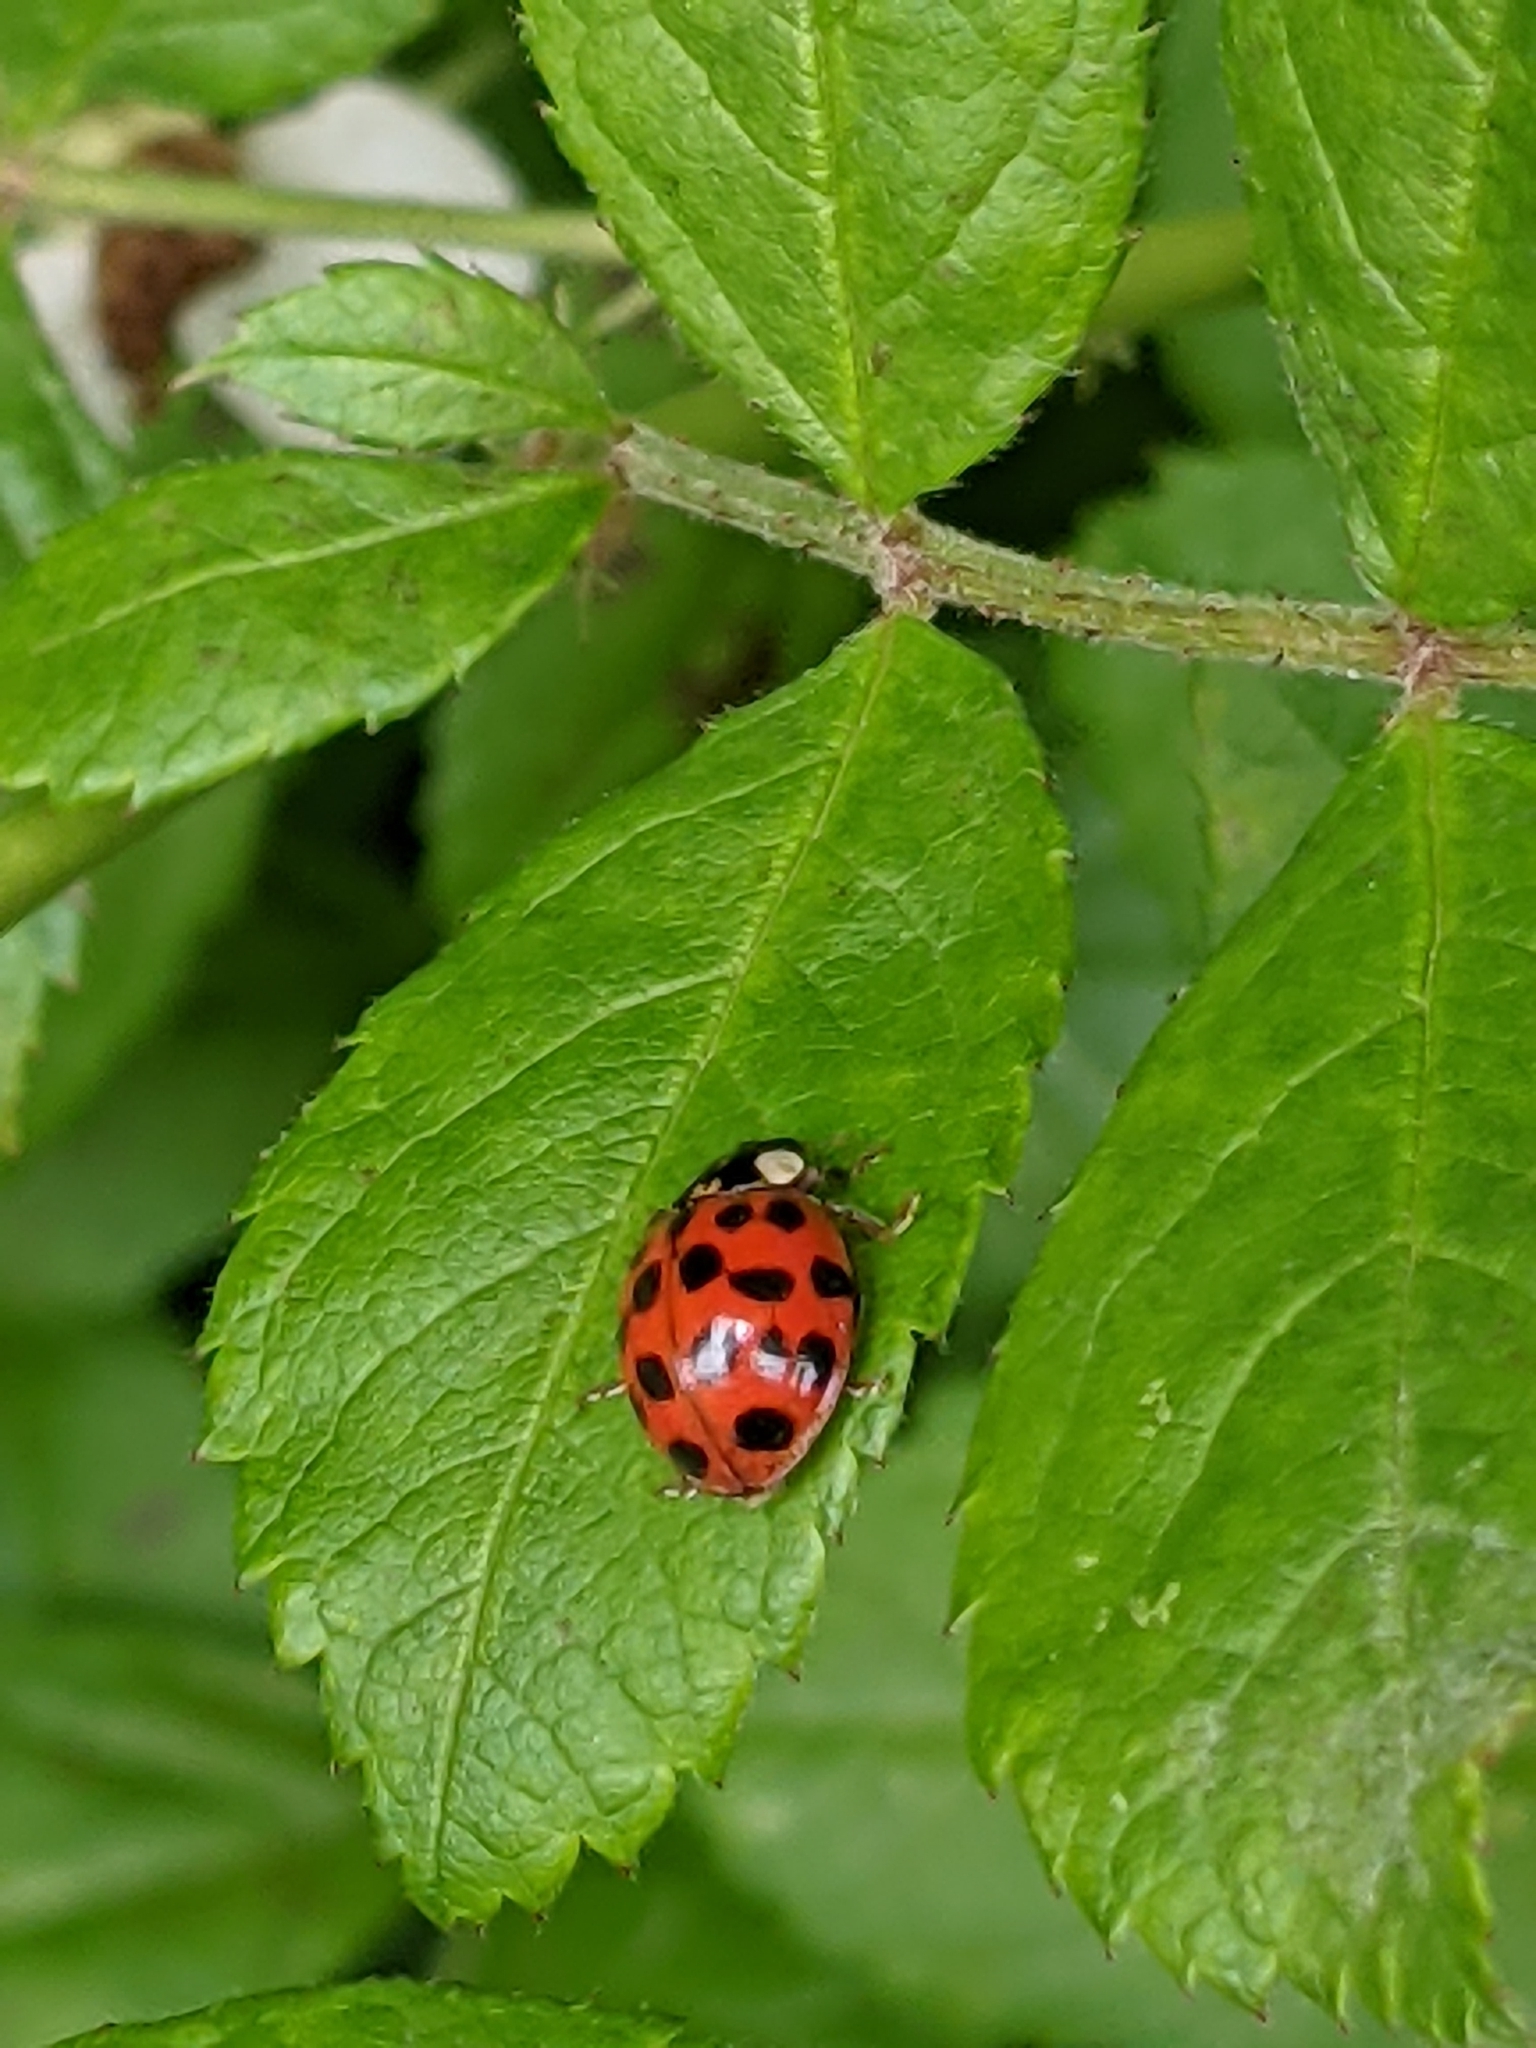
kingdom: Plantae
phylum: Tracheophyta
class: Magnoliopsida
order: Rosales
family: Rosaceae
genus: Rosa
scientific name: Rosa multiflora
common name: Multiflora rose
